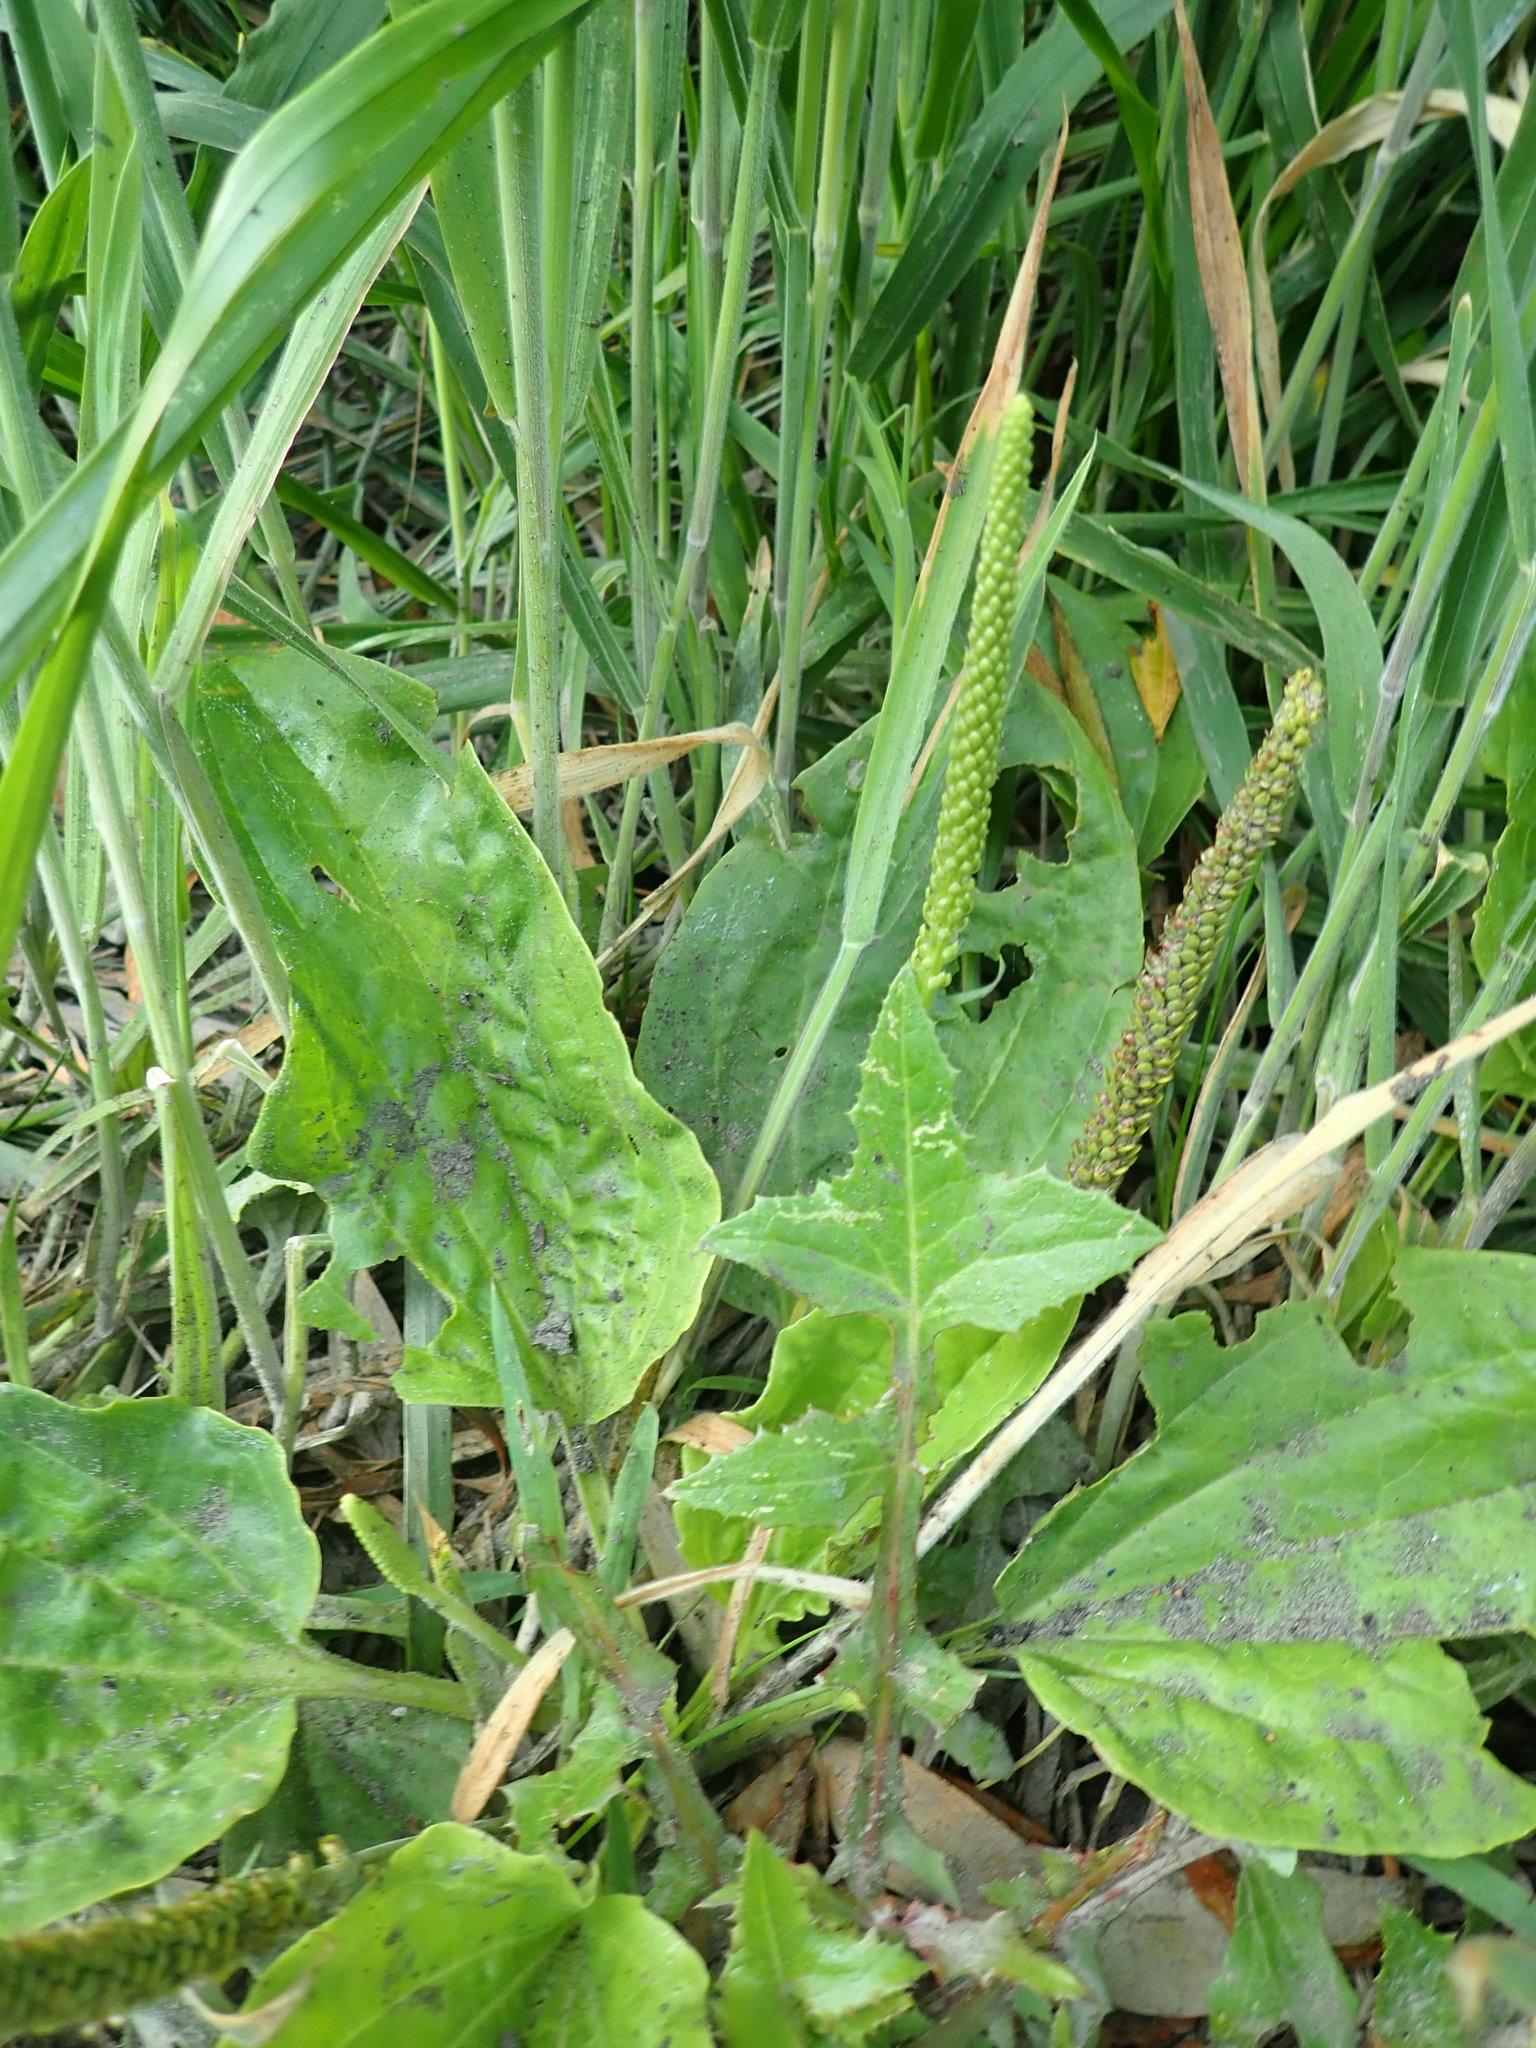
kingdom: Plantae
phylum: Tracheophyta
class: Magnoliopsida
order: Lamiales
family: Plantaginaceae
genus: Plantago
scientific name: Plantago major
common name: Common plantain
